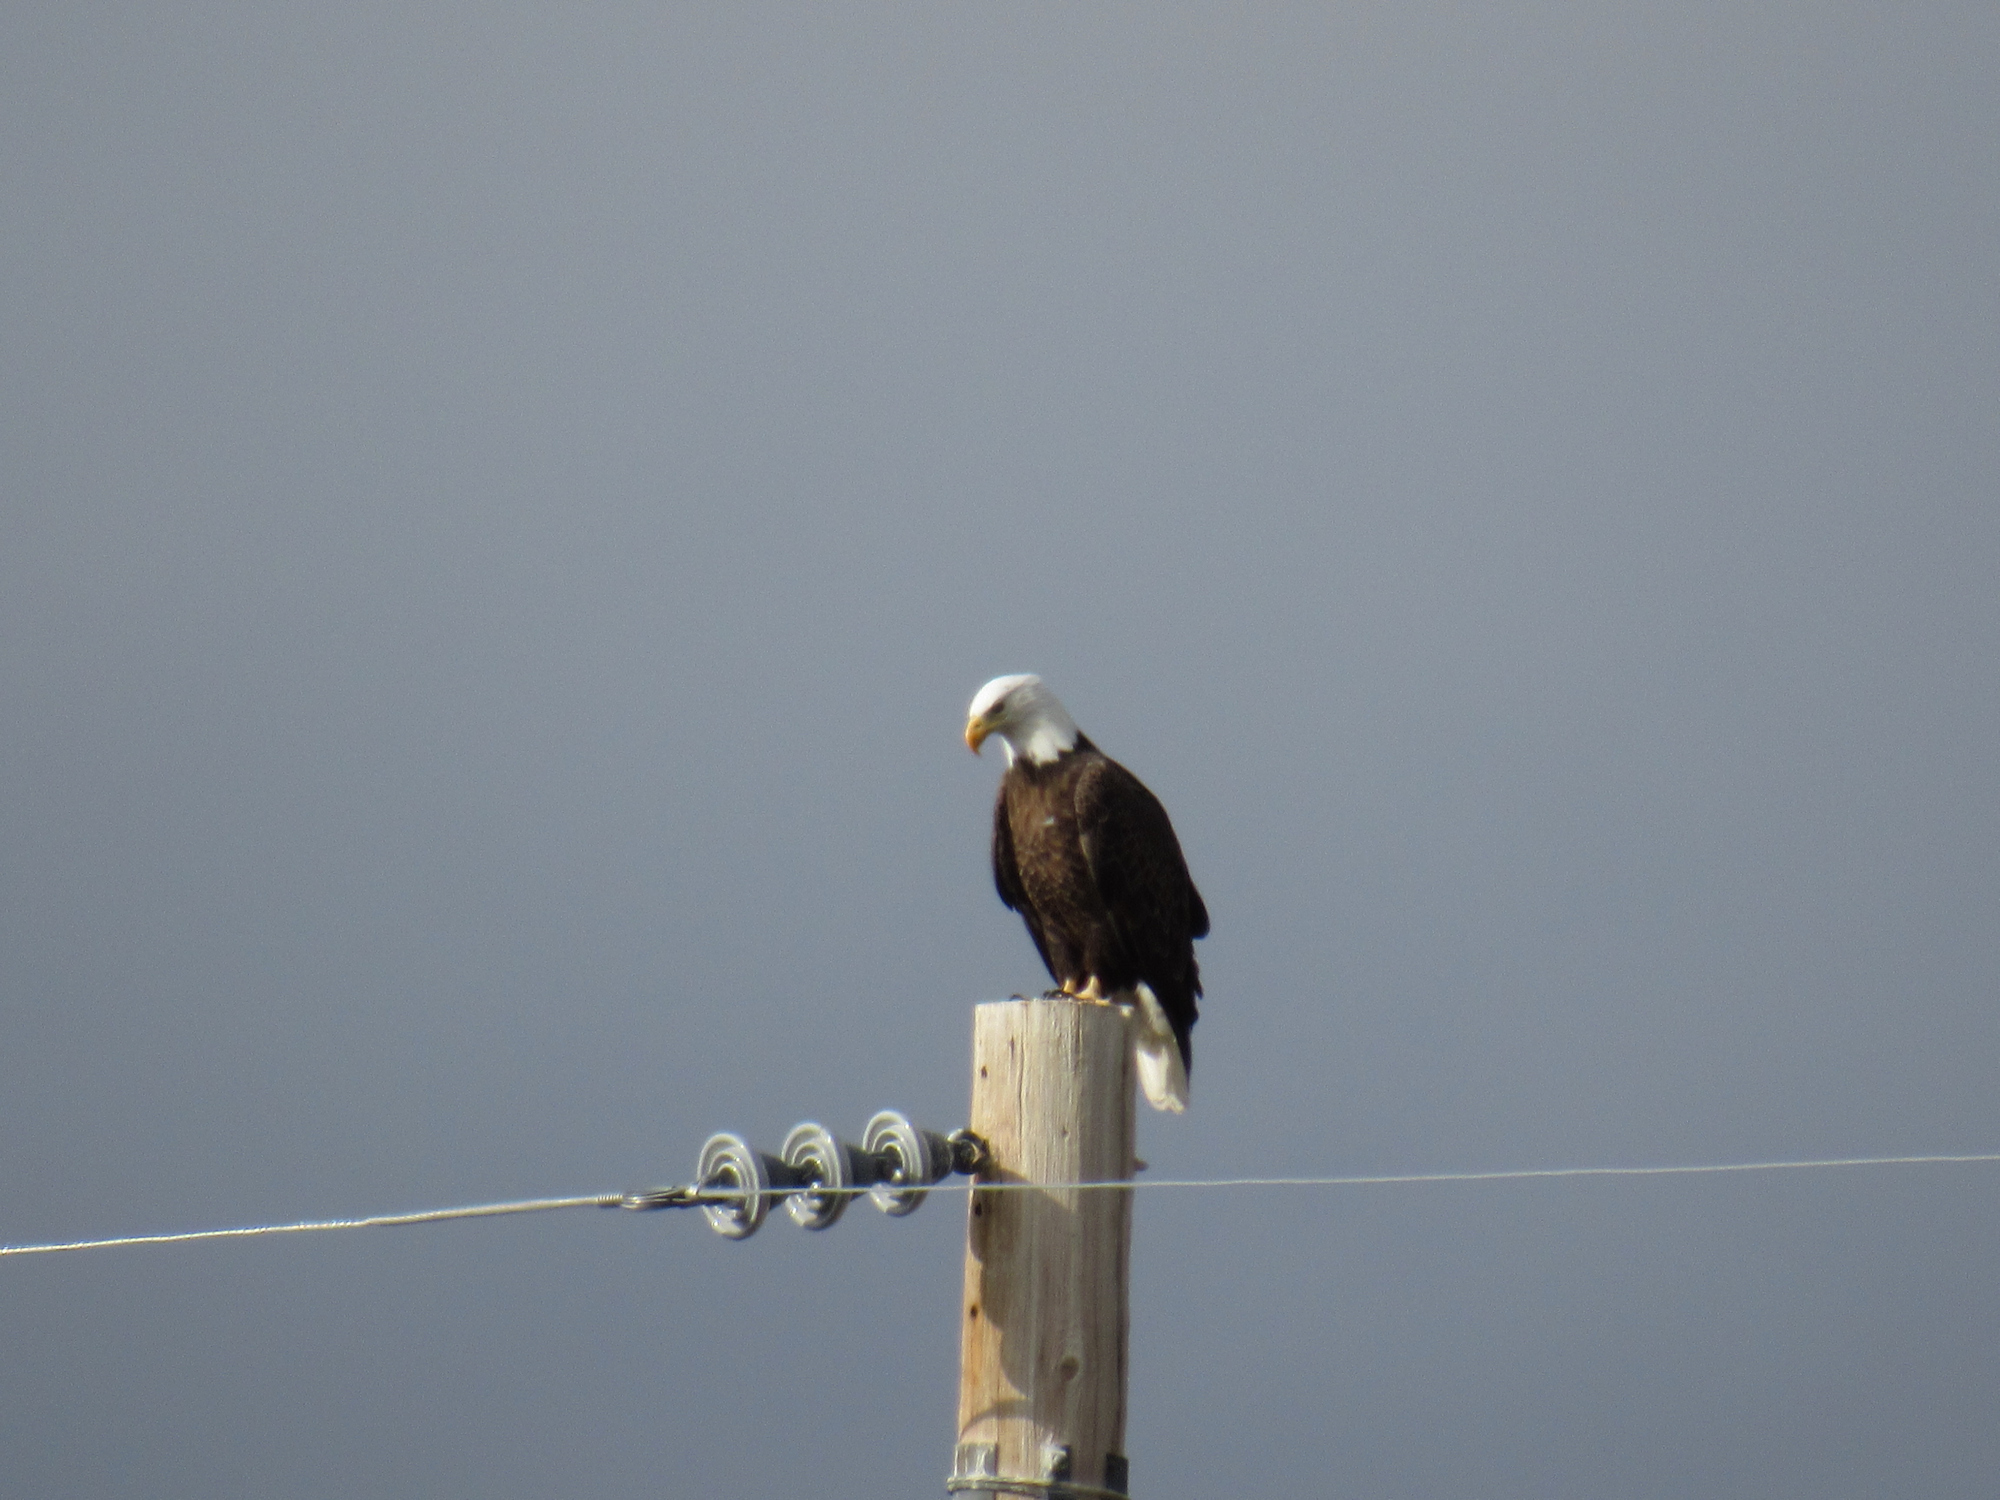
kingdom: Animalia
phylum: Chordata
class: Aves
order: Accipitriformes
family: Accipitridae
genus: Haliaeetus
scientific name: Haliaeetus leucocephalus
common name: Bald eagle
